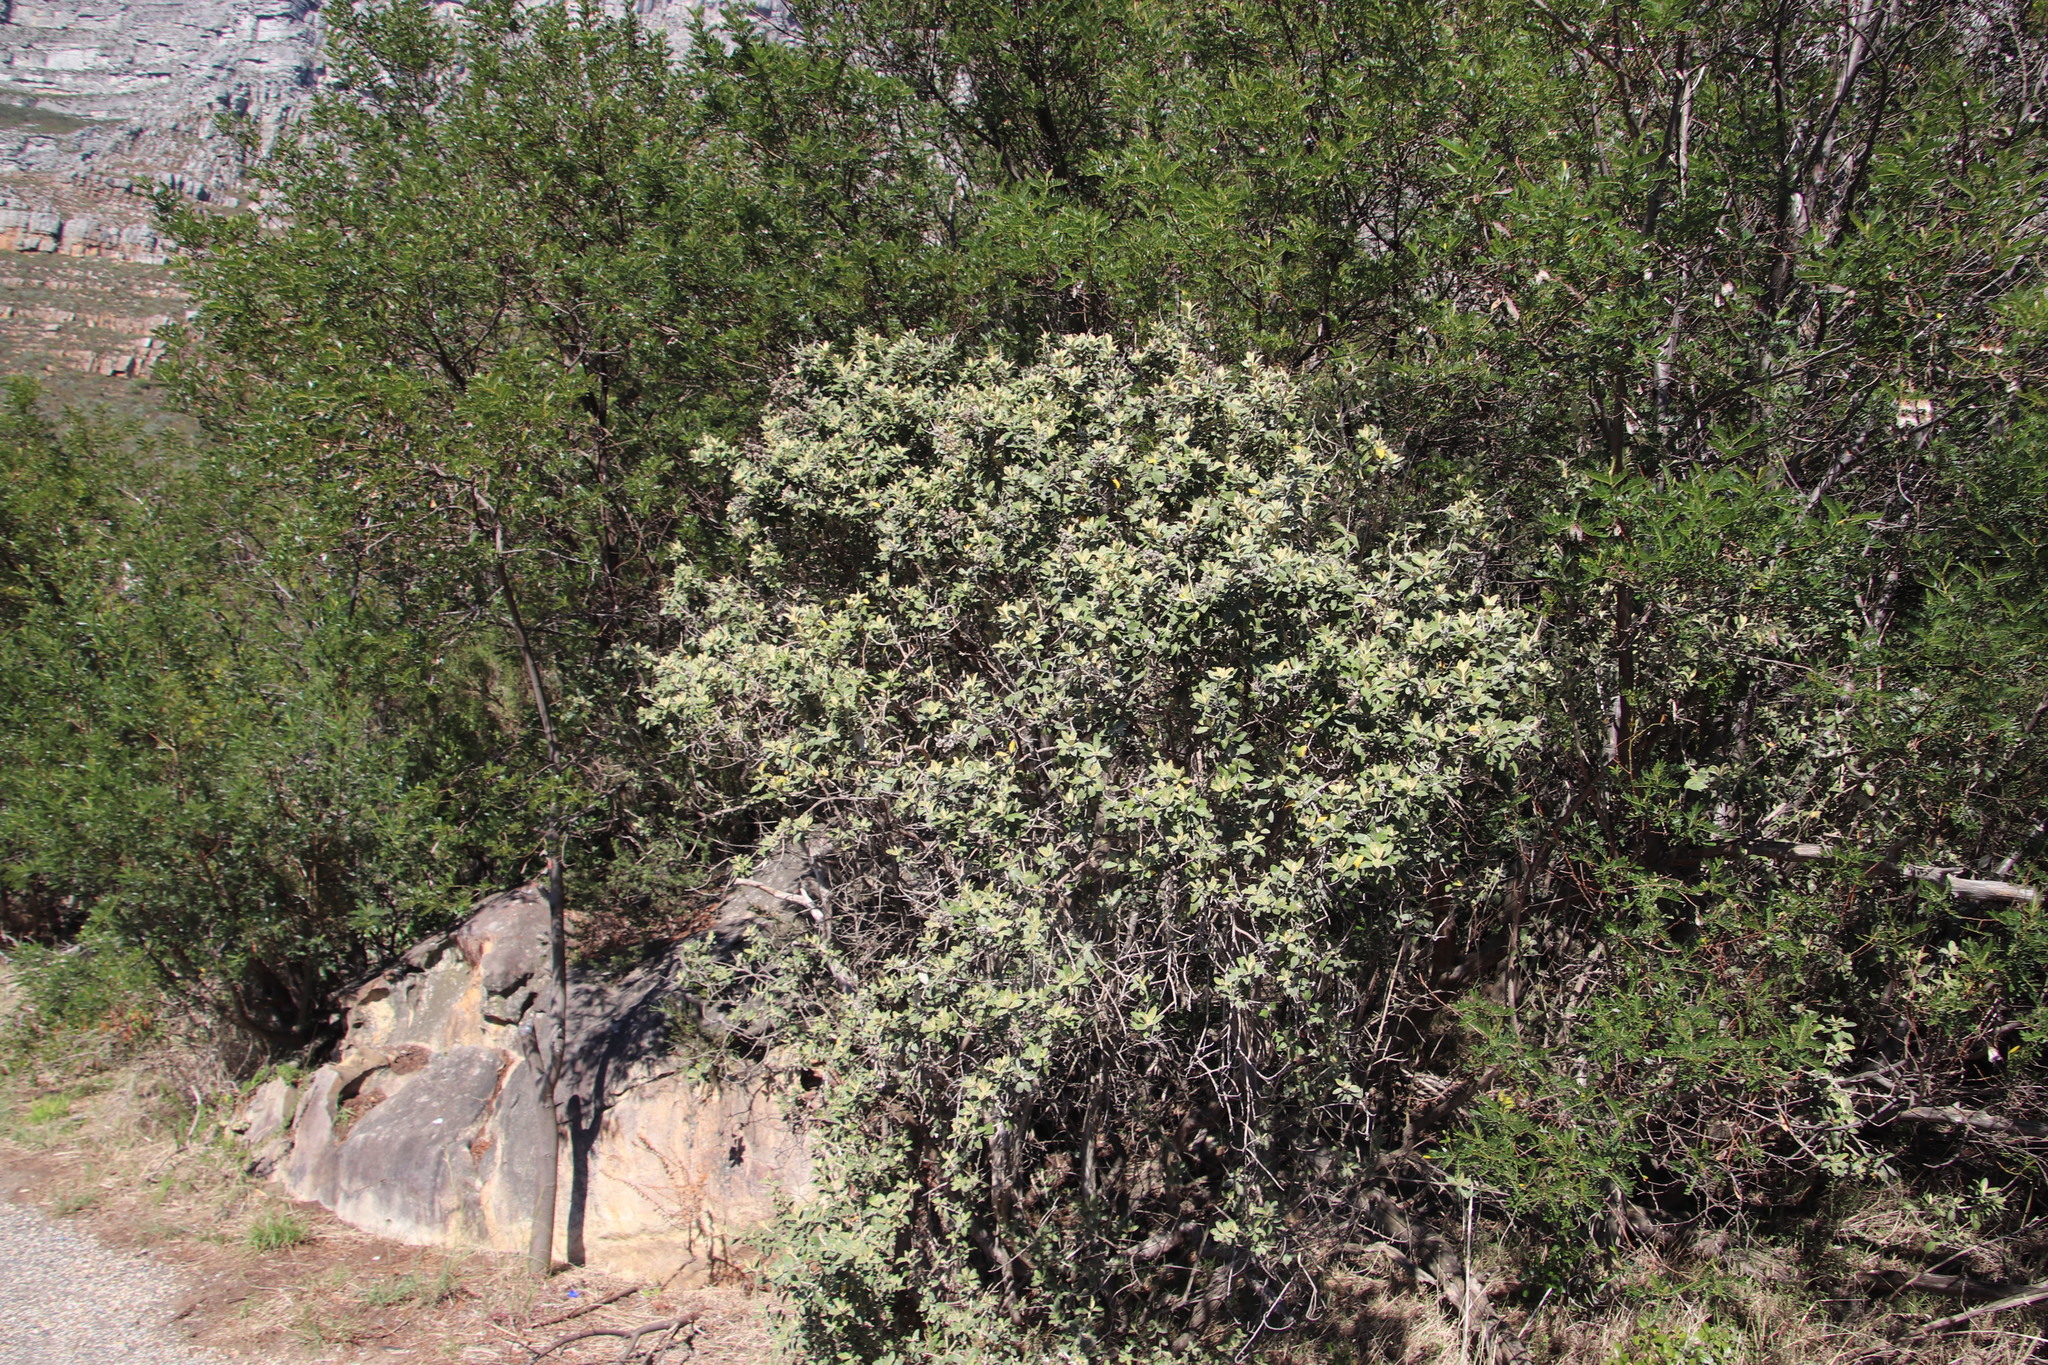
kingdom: Plantae
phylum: Tracheophyta
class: Magnoliopsida
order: Asterales
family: Asteraceae
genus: Tarchonanthus
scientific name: Tarchonanthus littoralis
